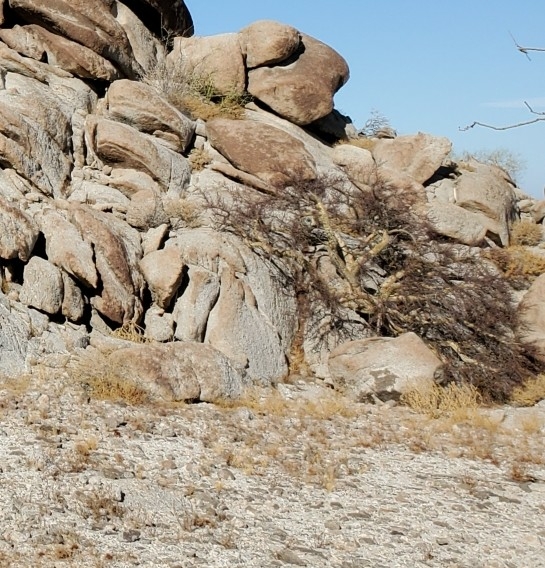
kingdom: Plantae
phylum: Tracheophyta
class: Magnoliopsida
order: Sapindales
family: Burseraceae
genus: Bursera
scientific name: Bursera microphylla
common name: Elephant tree
